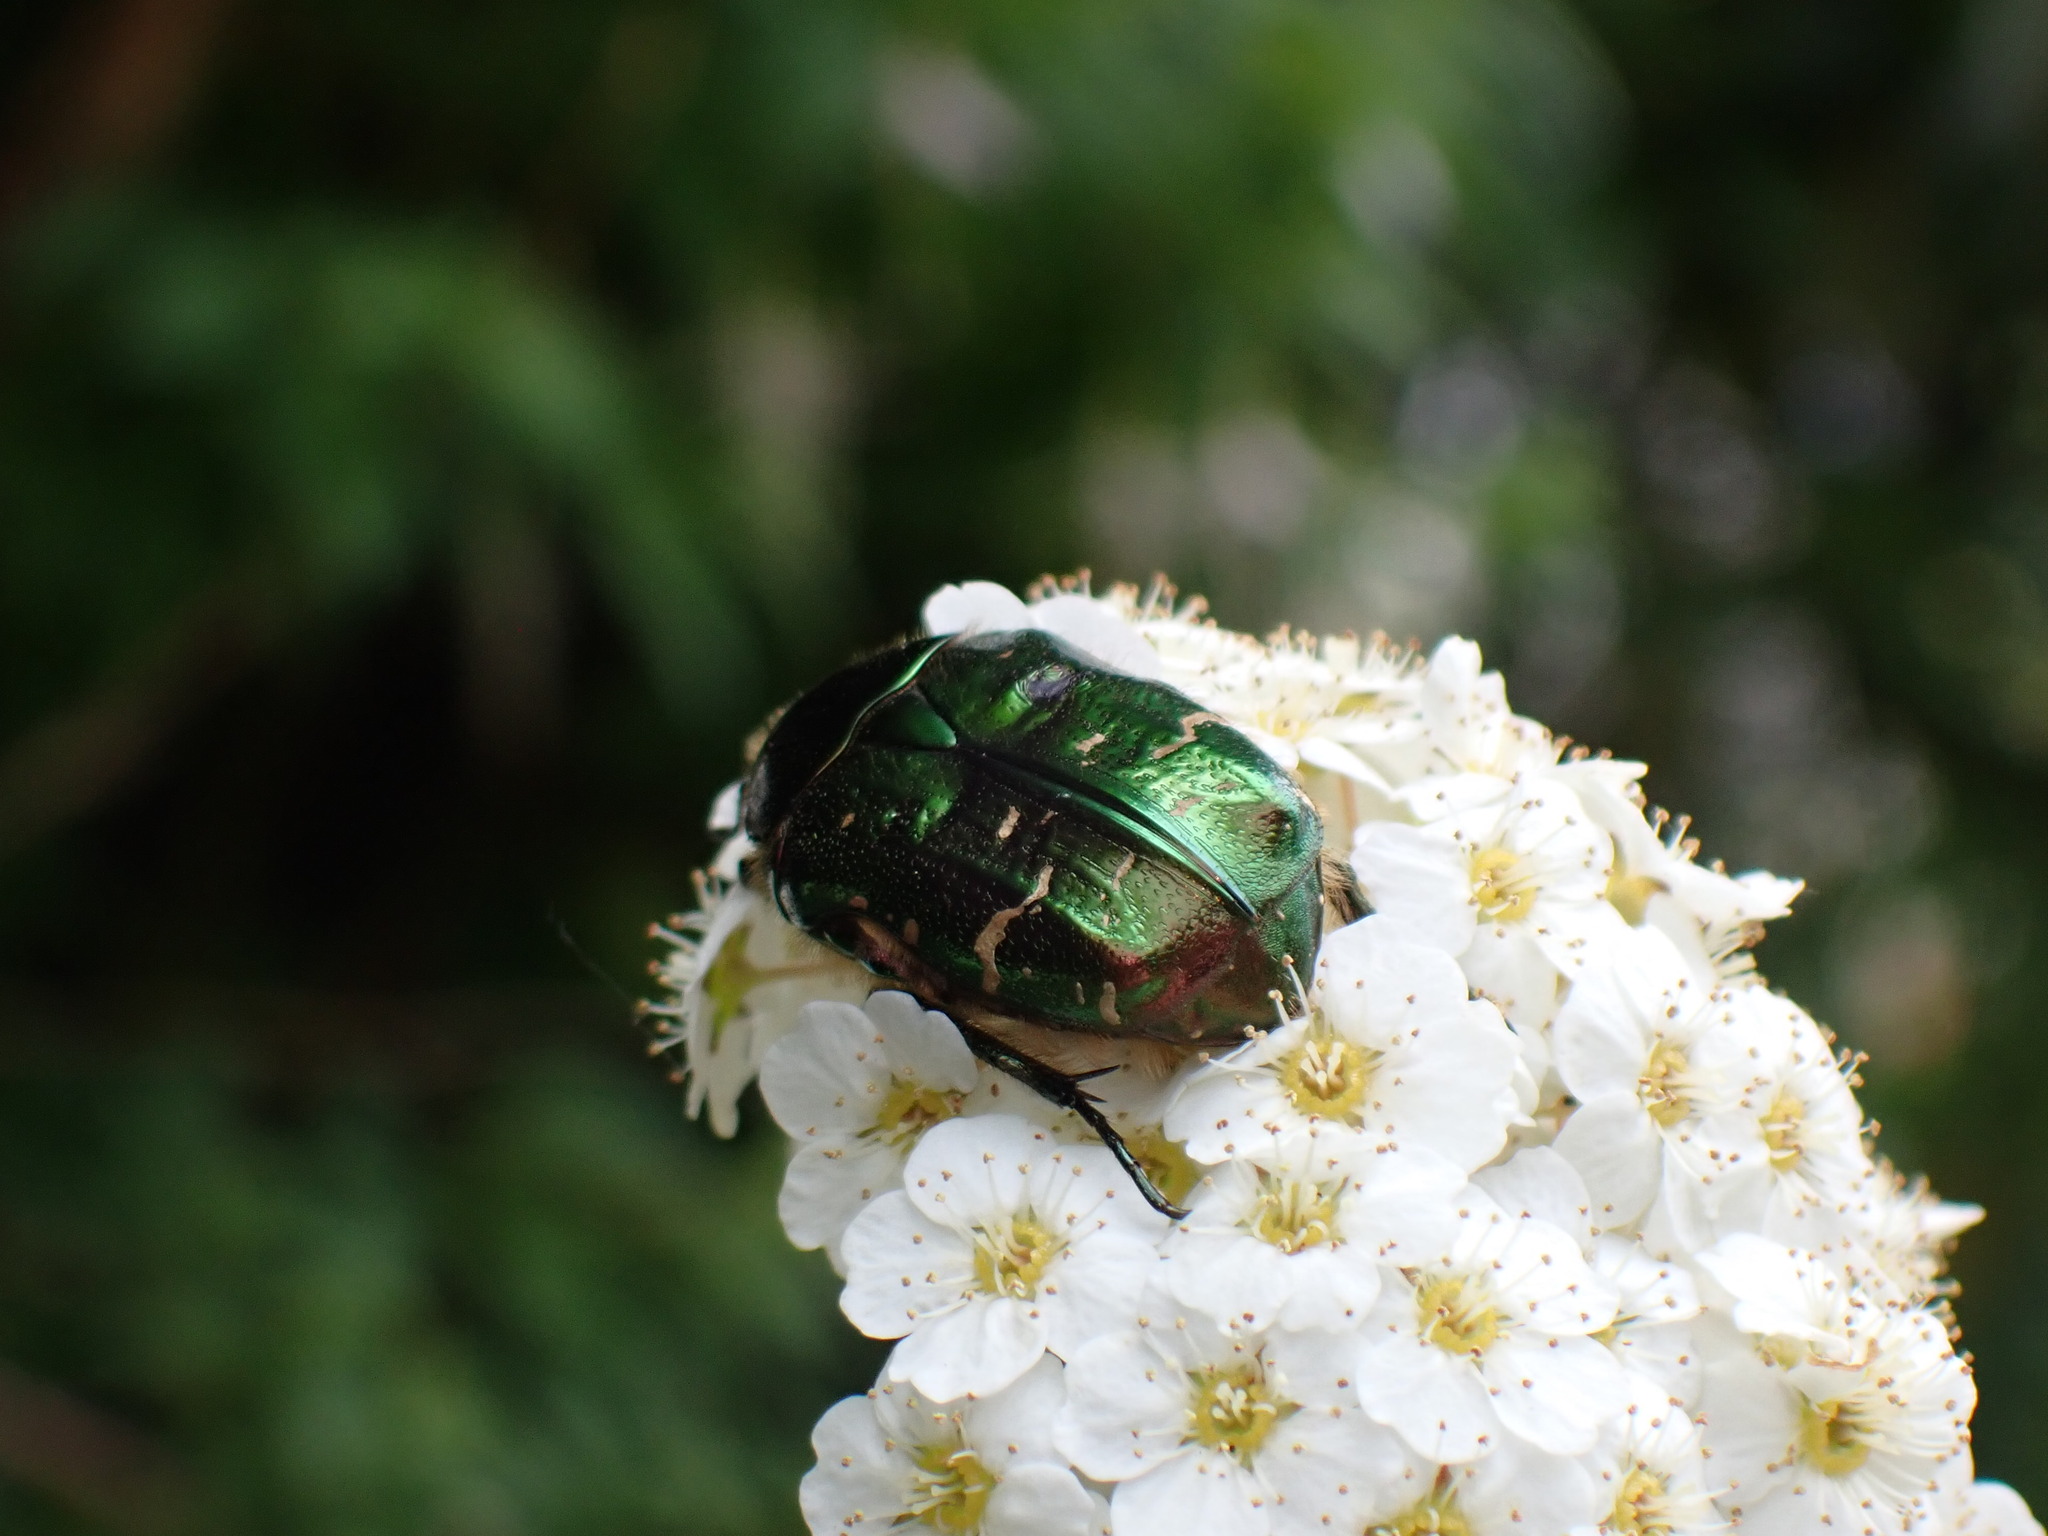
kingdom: Animalia
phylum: Arthropoda
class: Insecta
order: Coleoptera
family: Scarabaeidae
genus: Cetonia
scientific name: Cetonia aurata
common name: Rose chafer
